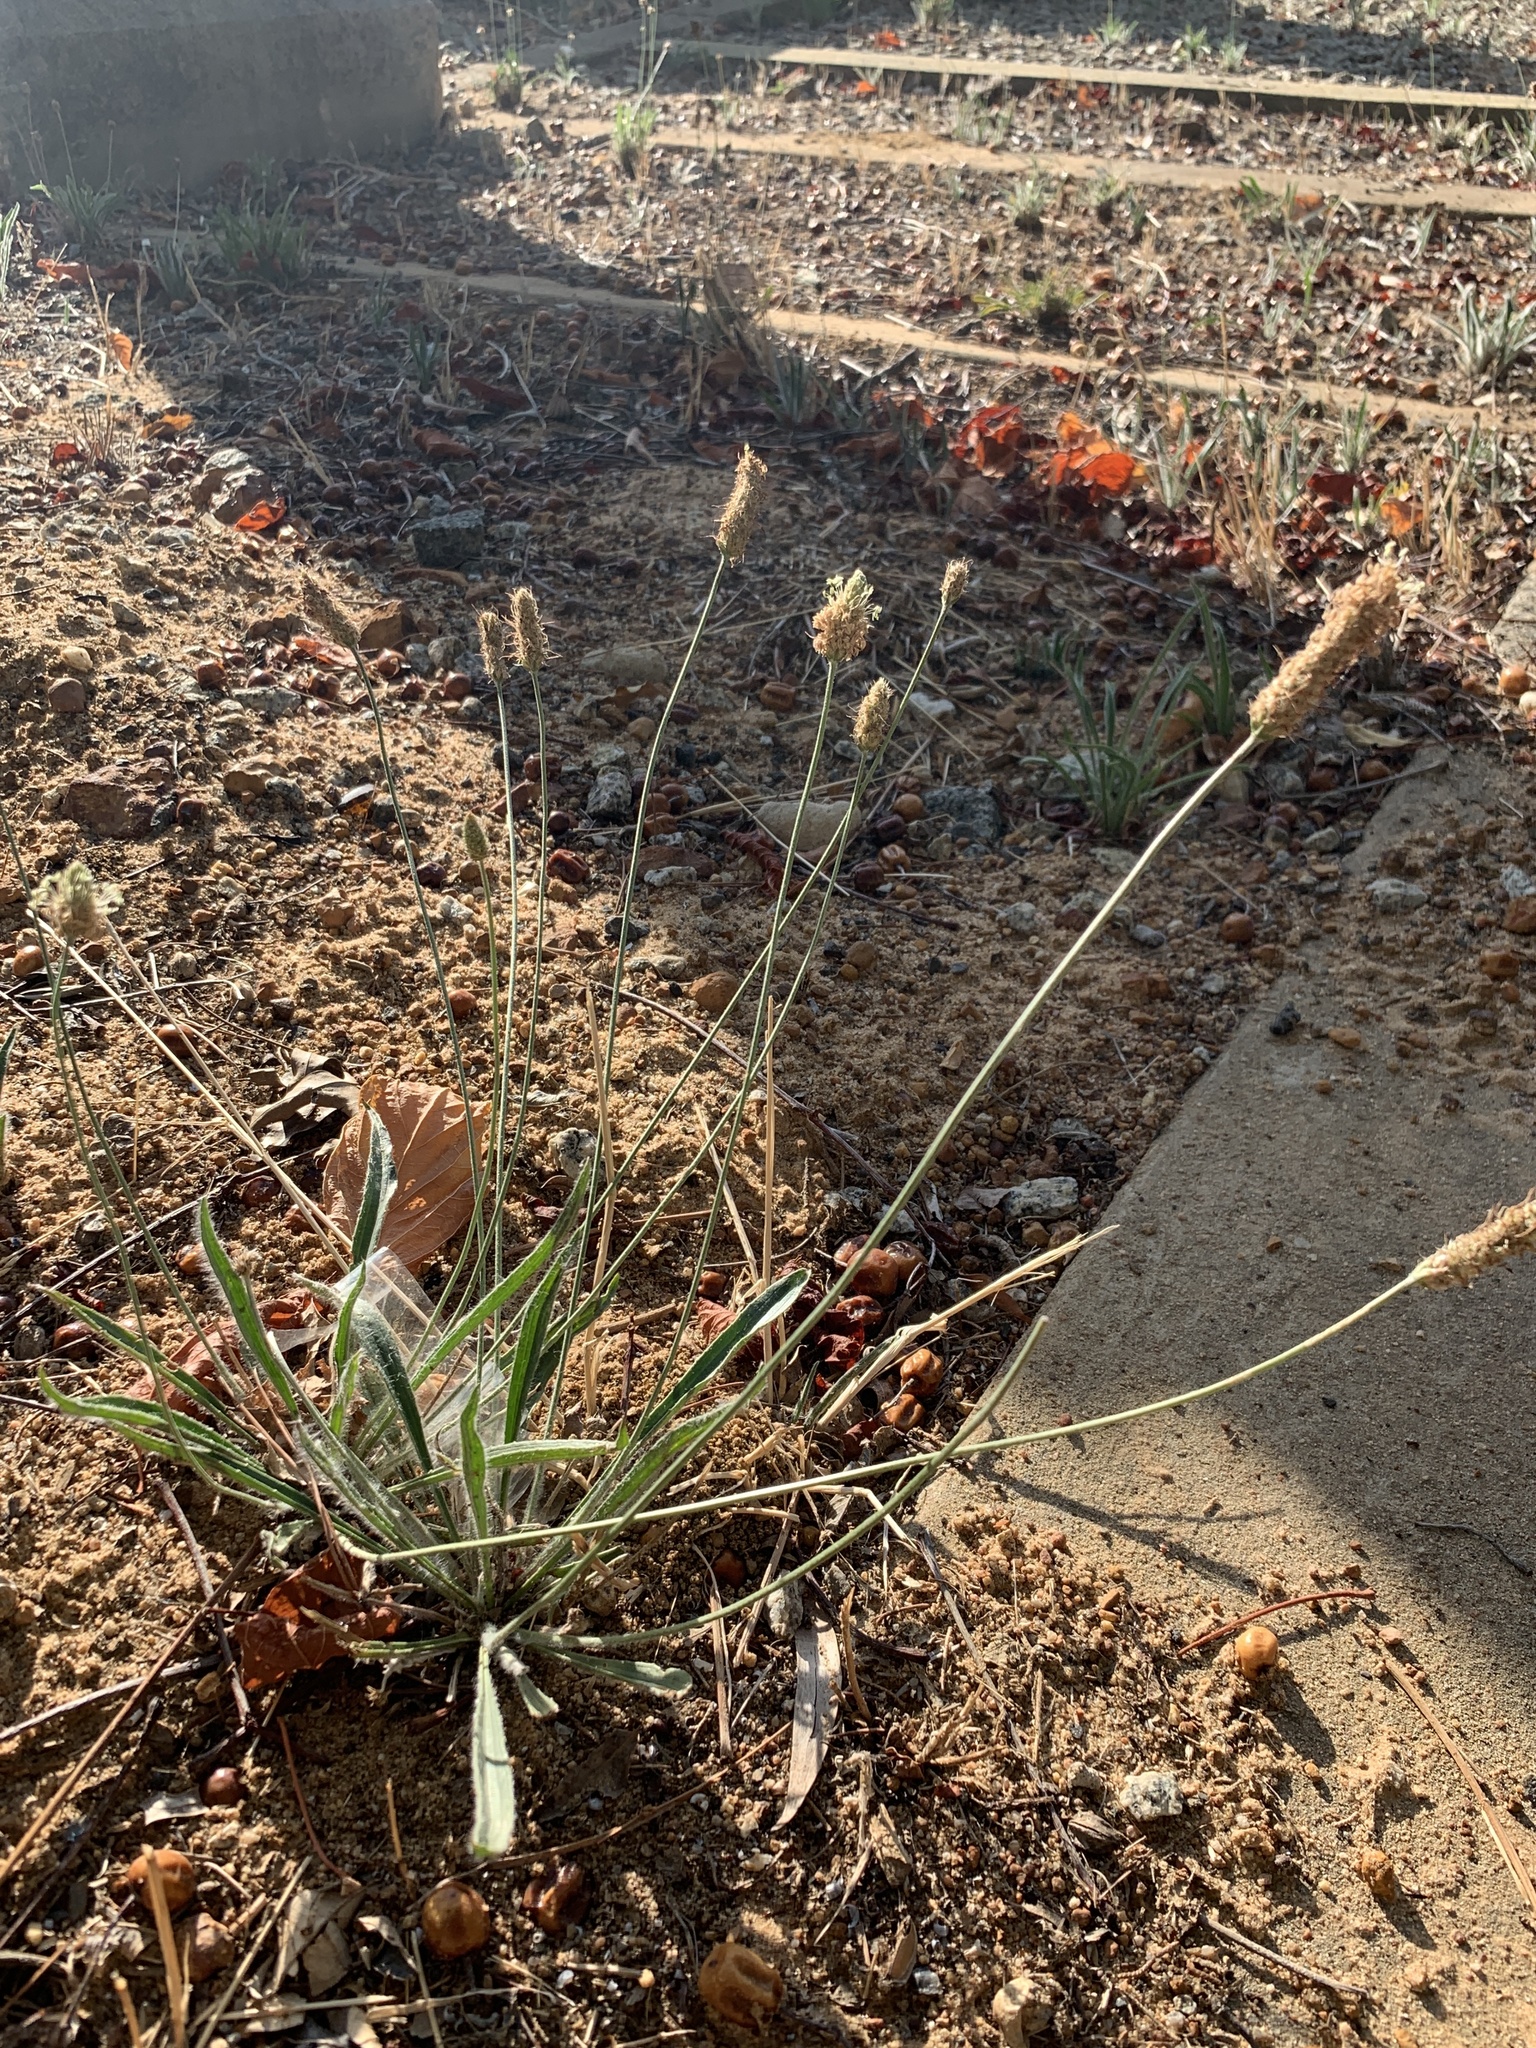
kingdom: Plantae
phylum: Tracheophyta
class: Magnoliopsida
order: Lamiales
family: Plantaginaceae
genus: Plantago
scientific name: Plantago lanceolata
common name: Ribwort plantain
